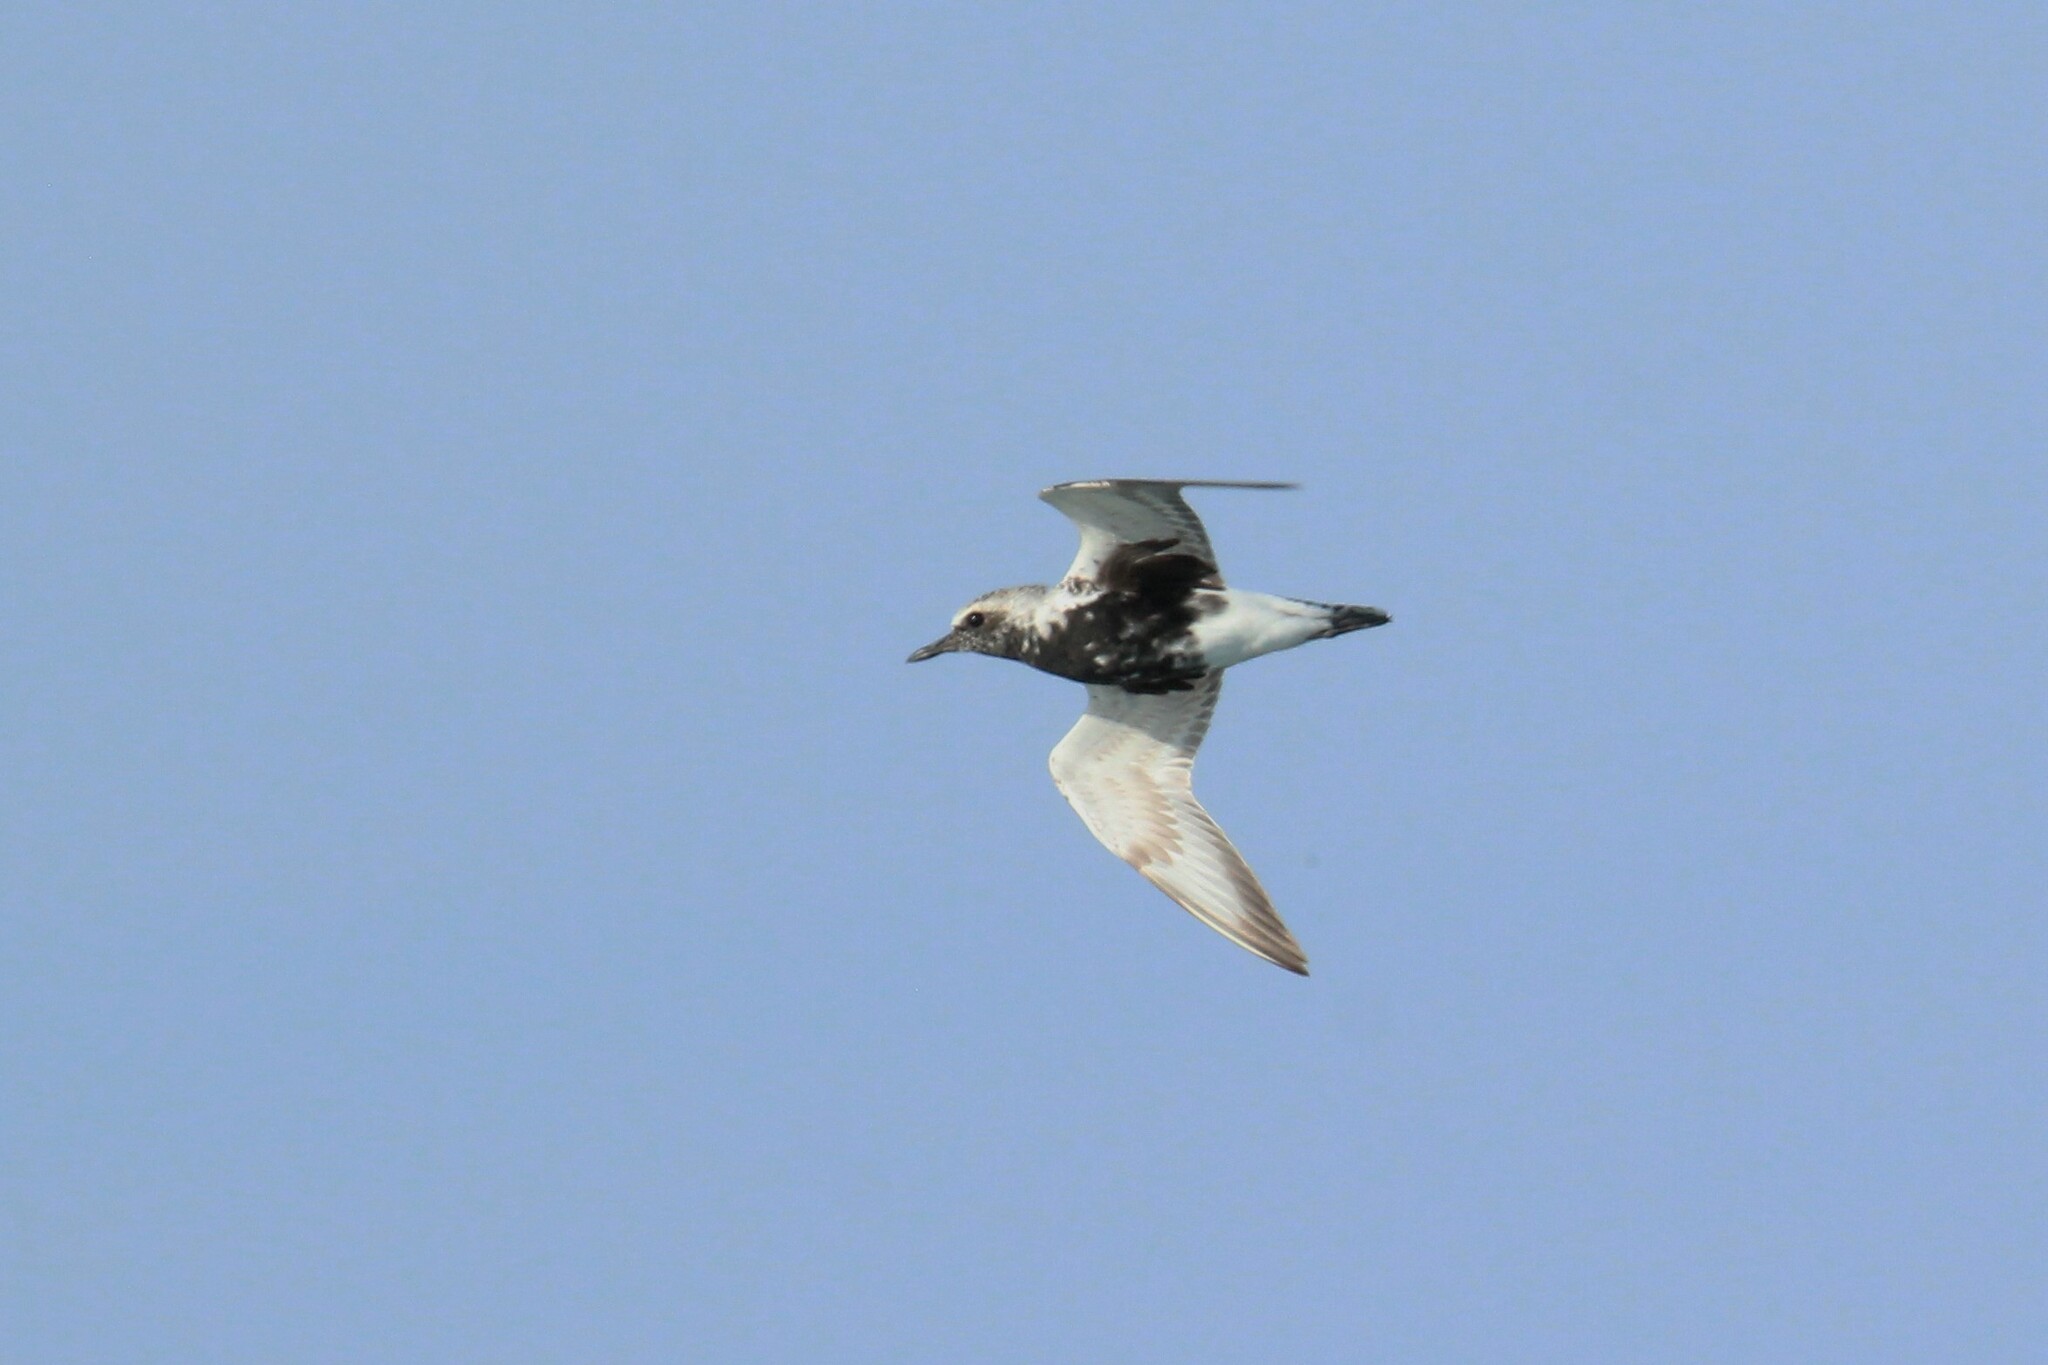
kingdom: Animalia
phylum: Chordata
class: Aves
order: Charadriiformes
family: Charadriidae
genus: Pluvialis
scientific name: Pluvialis squatarola
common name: Grey plover
